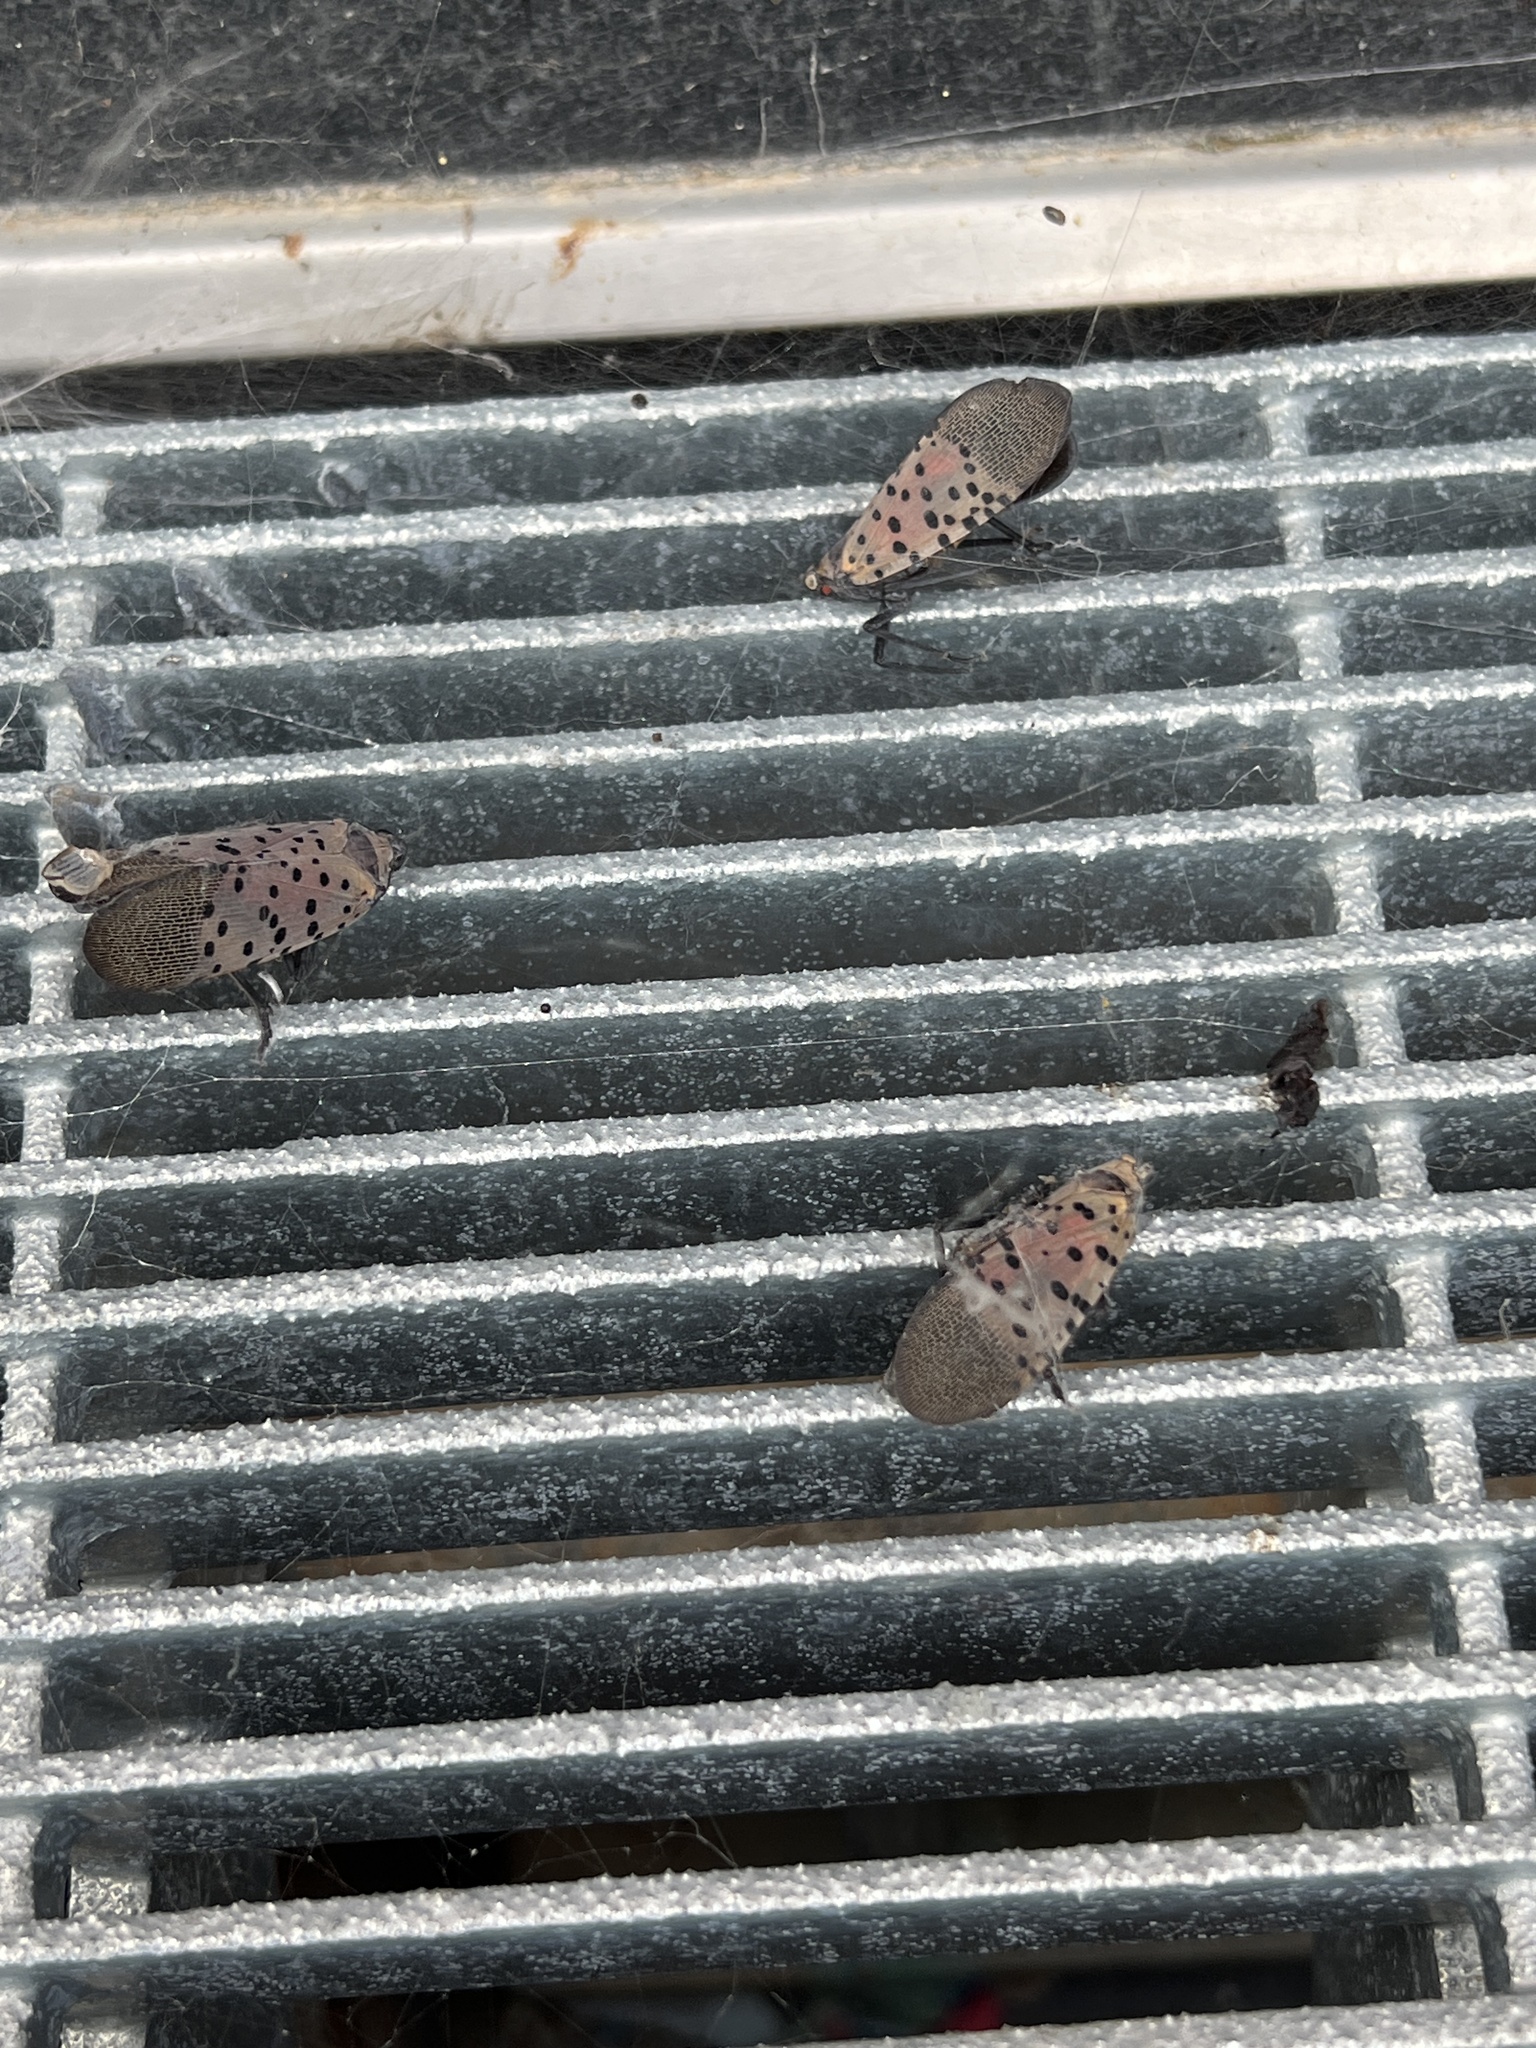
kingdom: Animalia
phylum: Arthropoda
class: Insecta
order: Hemiptera
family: Fulgoridae
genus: Lycorma
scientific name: Lycorma delicatula
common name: Spotted lanternfly
